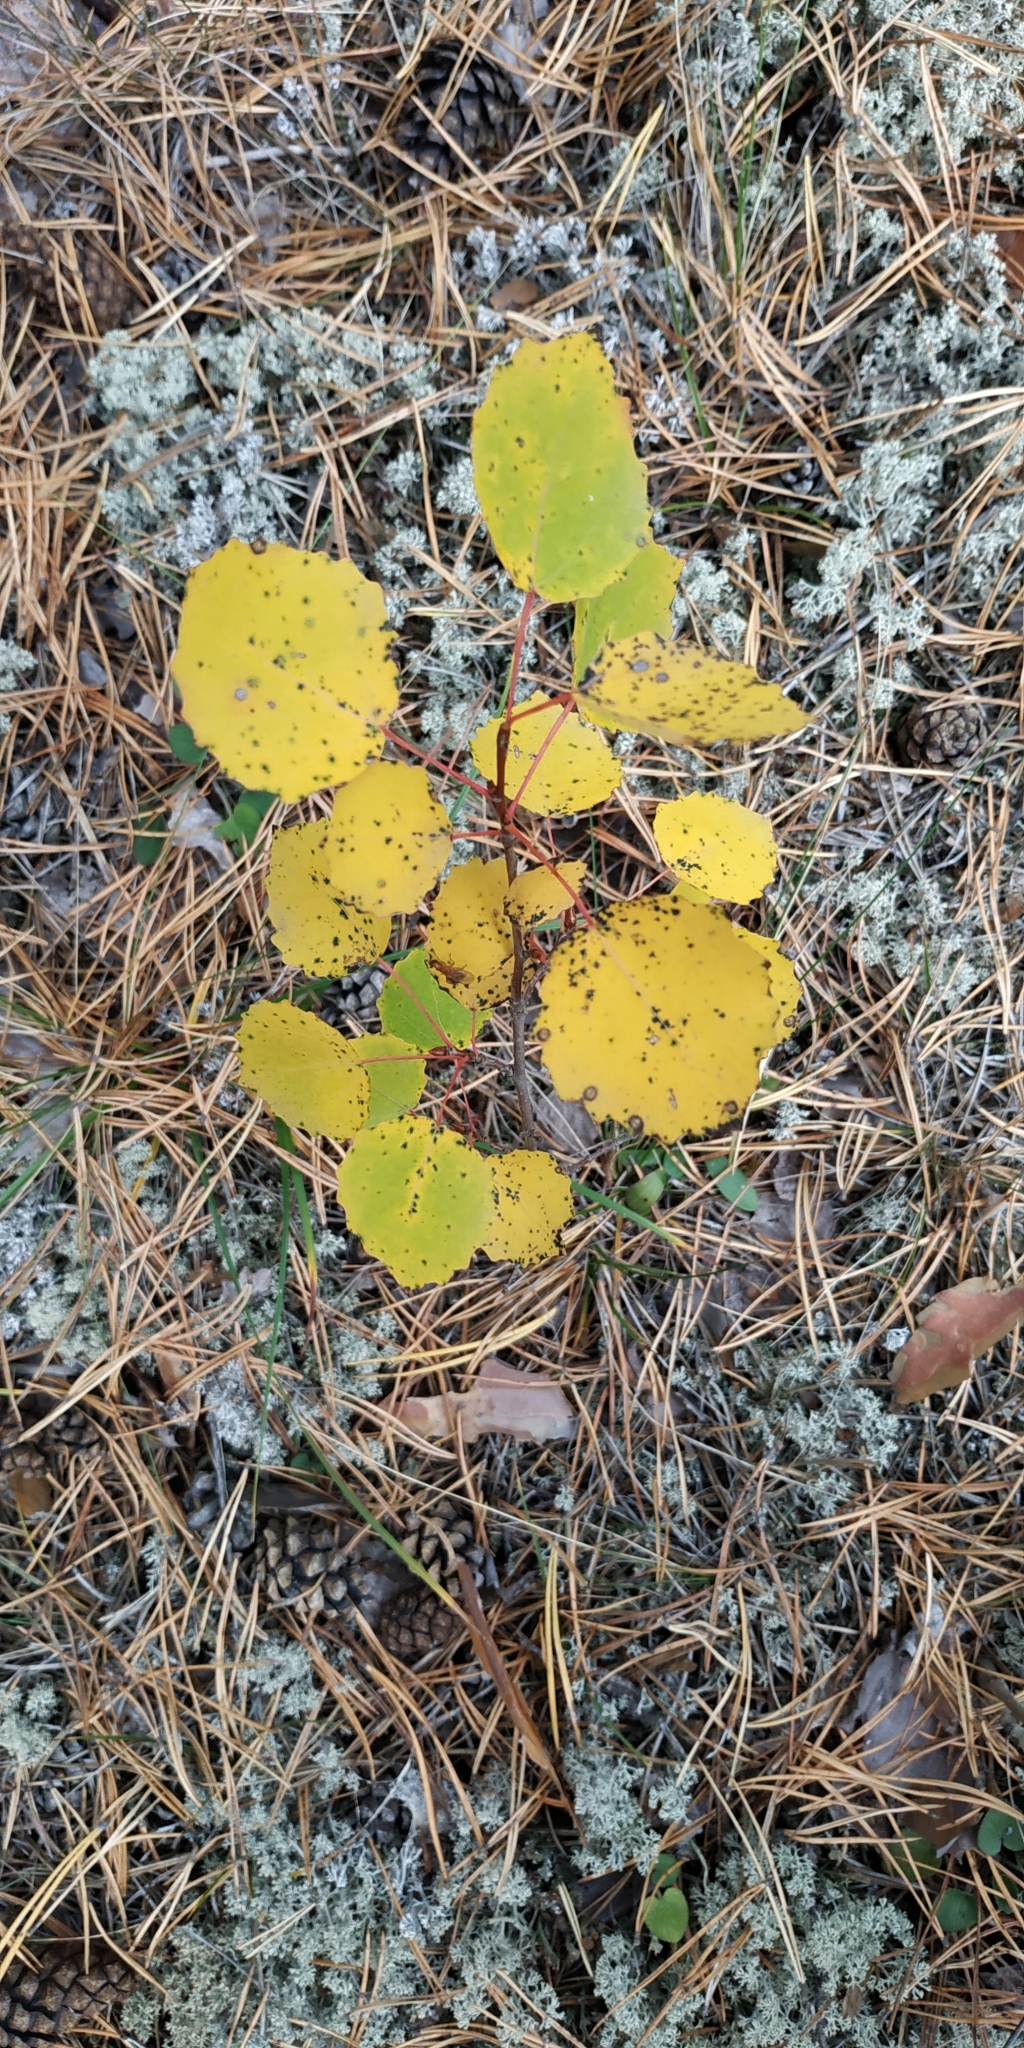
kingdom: Plantae
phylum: Tracheophyta
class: Magnoliopsida
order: Malpighiales
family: Salicaceae
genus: Populus
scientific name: Populus tremula
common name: European aspen
